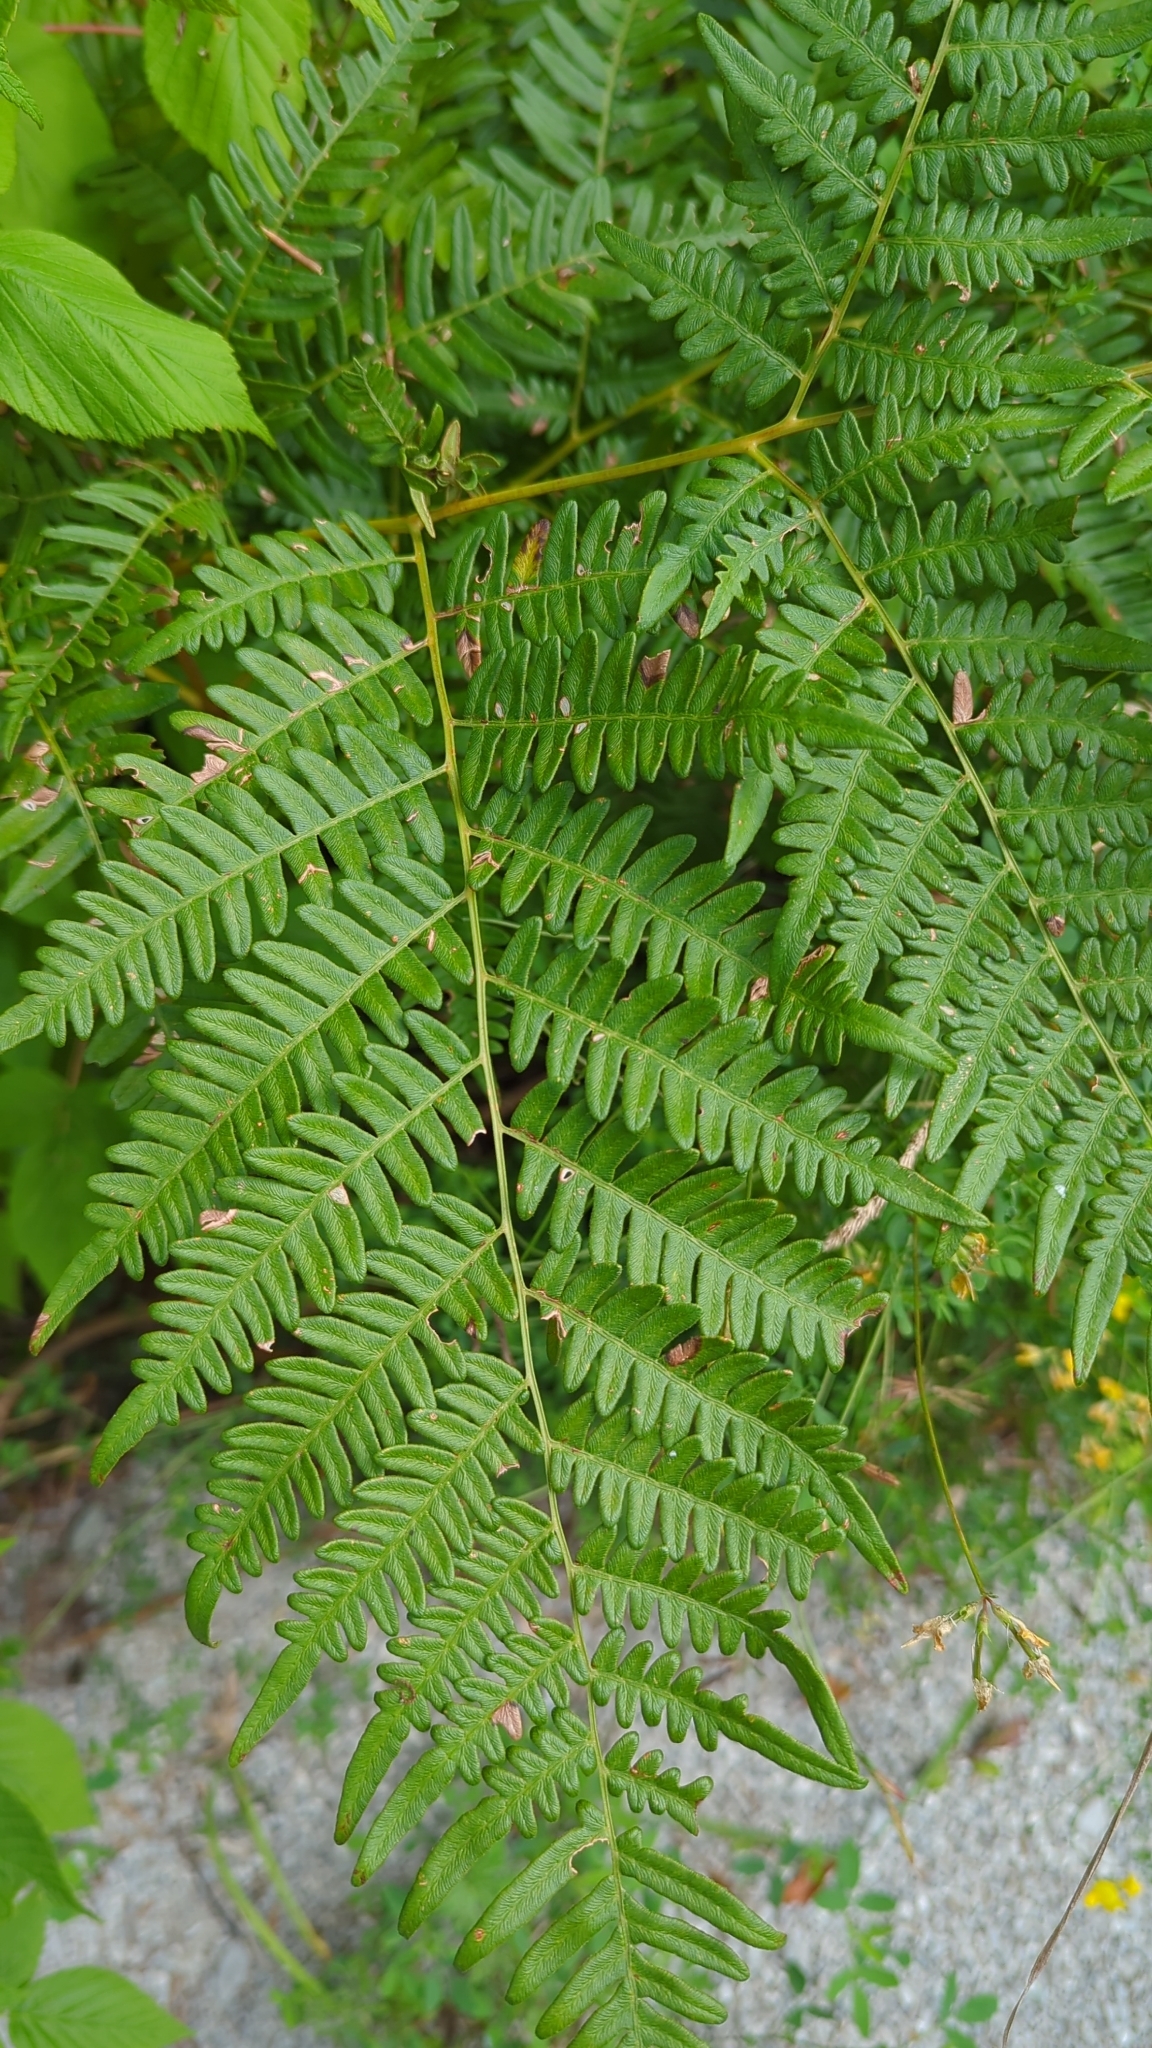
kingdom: Plantae
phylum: Tracheophyta
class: Polypodiopsida
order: Polypodiales
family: Dennstaedtiaceae
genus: Pteridium
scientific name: Pteridium aquilinum
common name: Bracken
